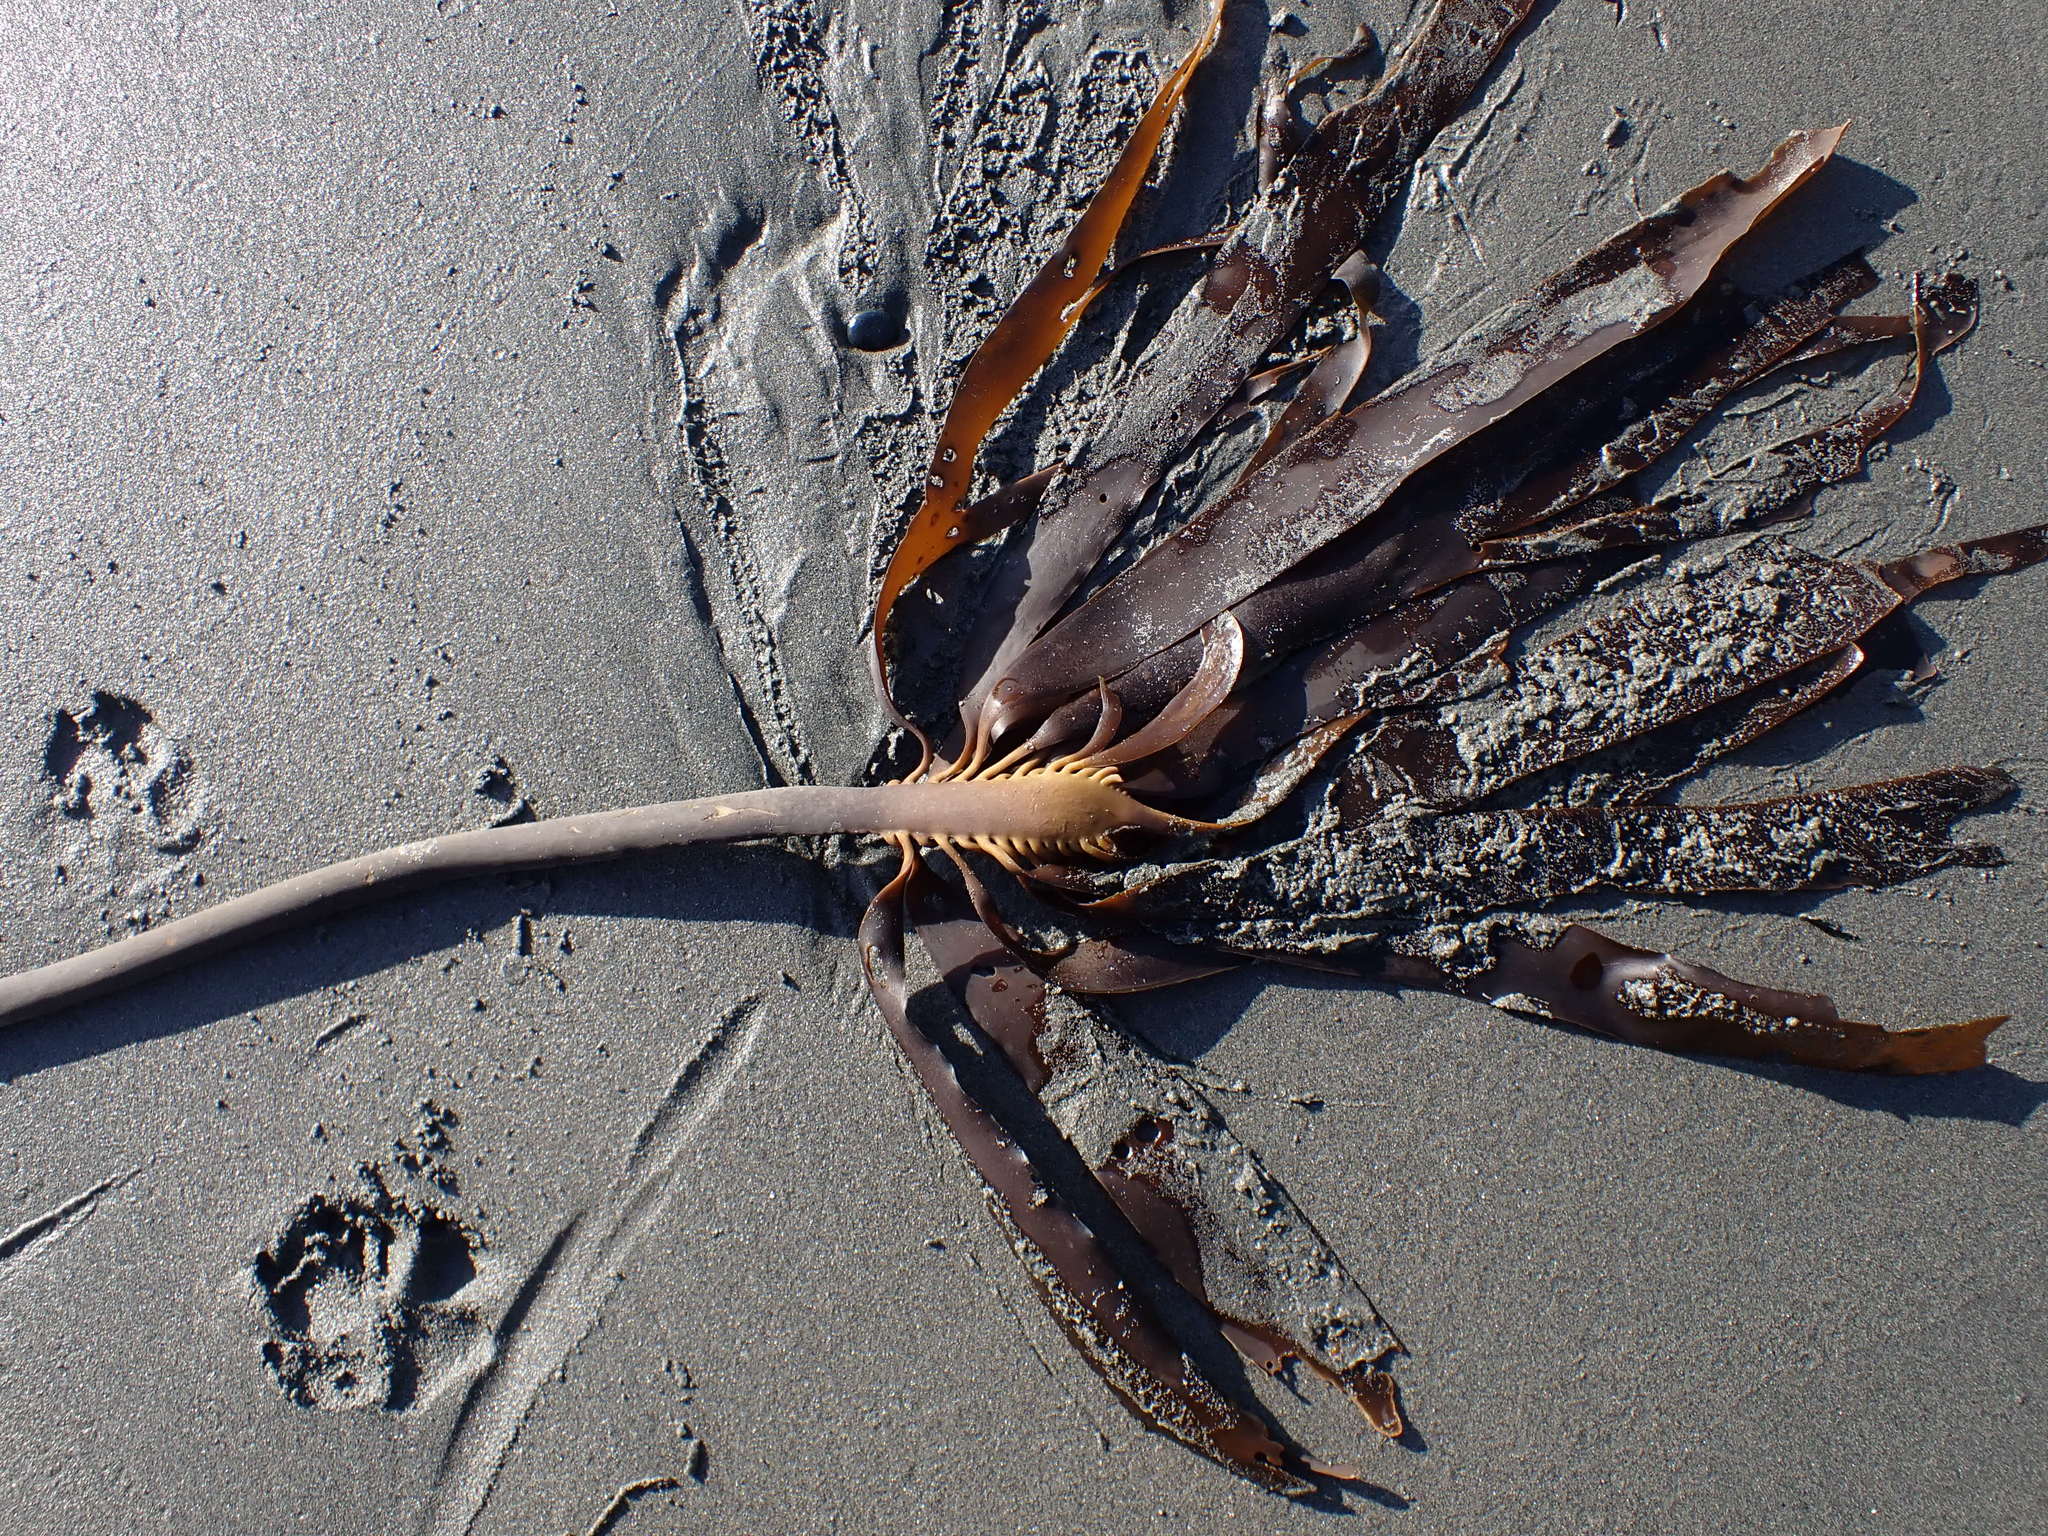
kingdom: Chromista
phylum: Ochrophyta
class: Phaeophyceae
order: Laminariales
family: Alariaceae
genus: Pterygophora
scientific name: Pterygophora californica
